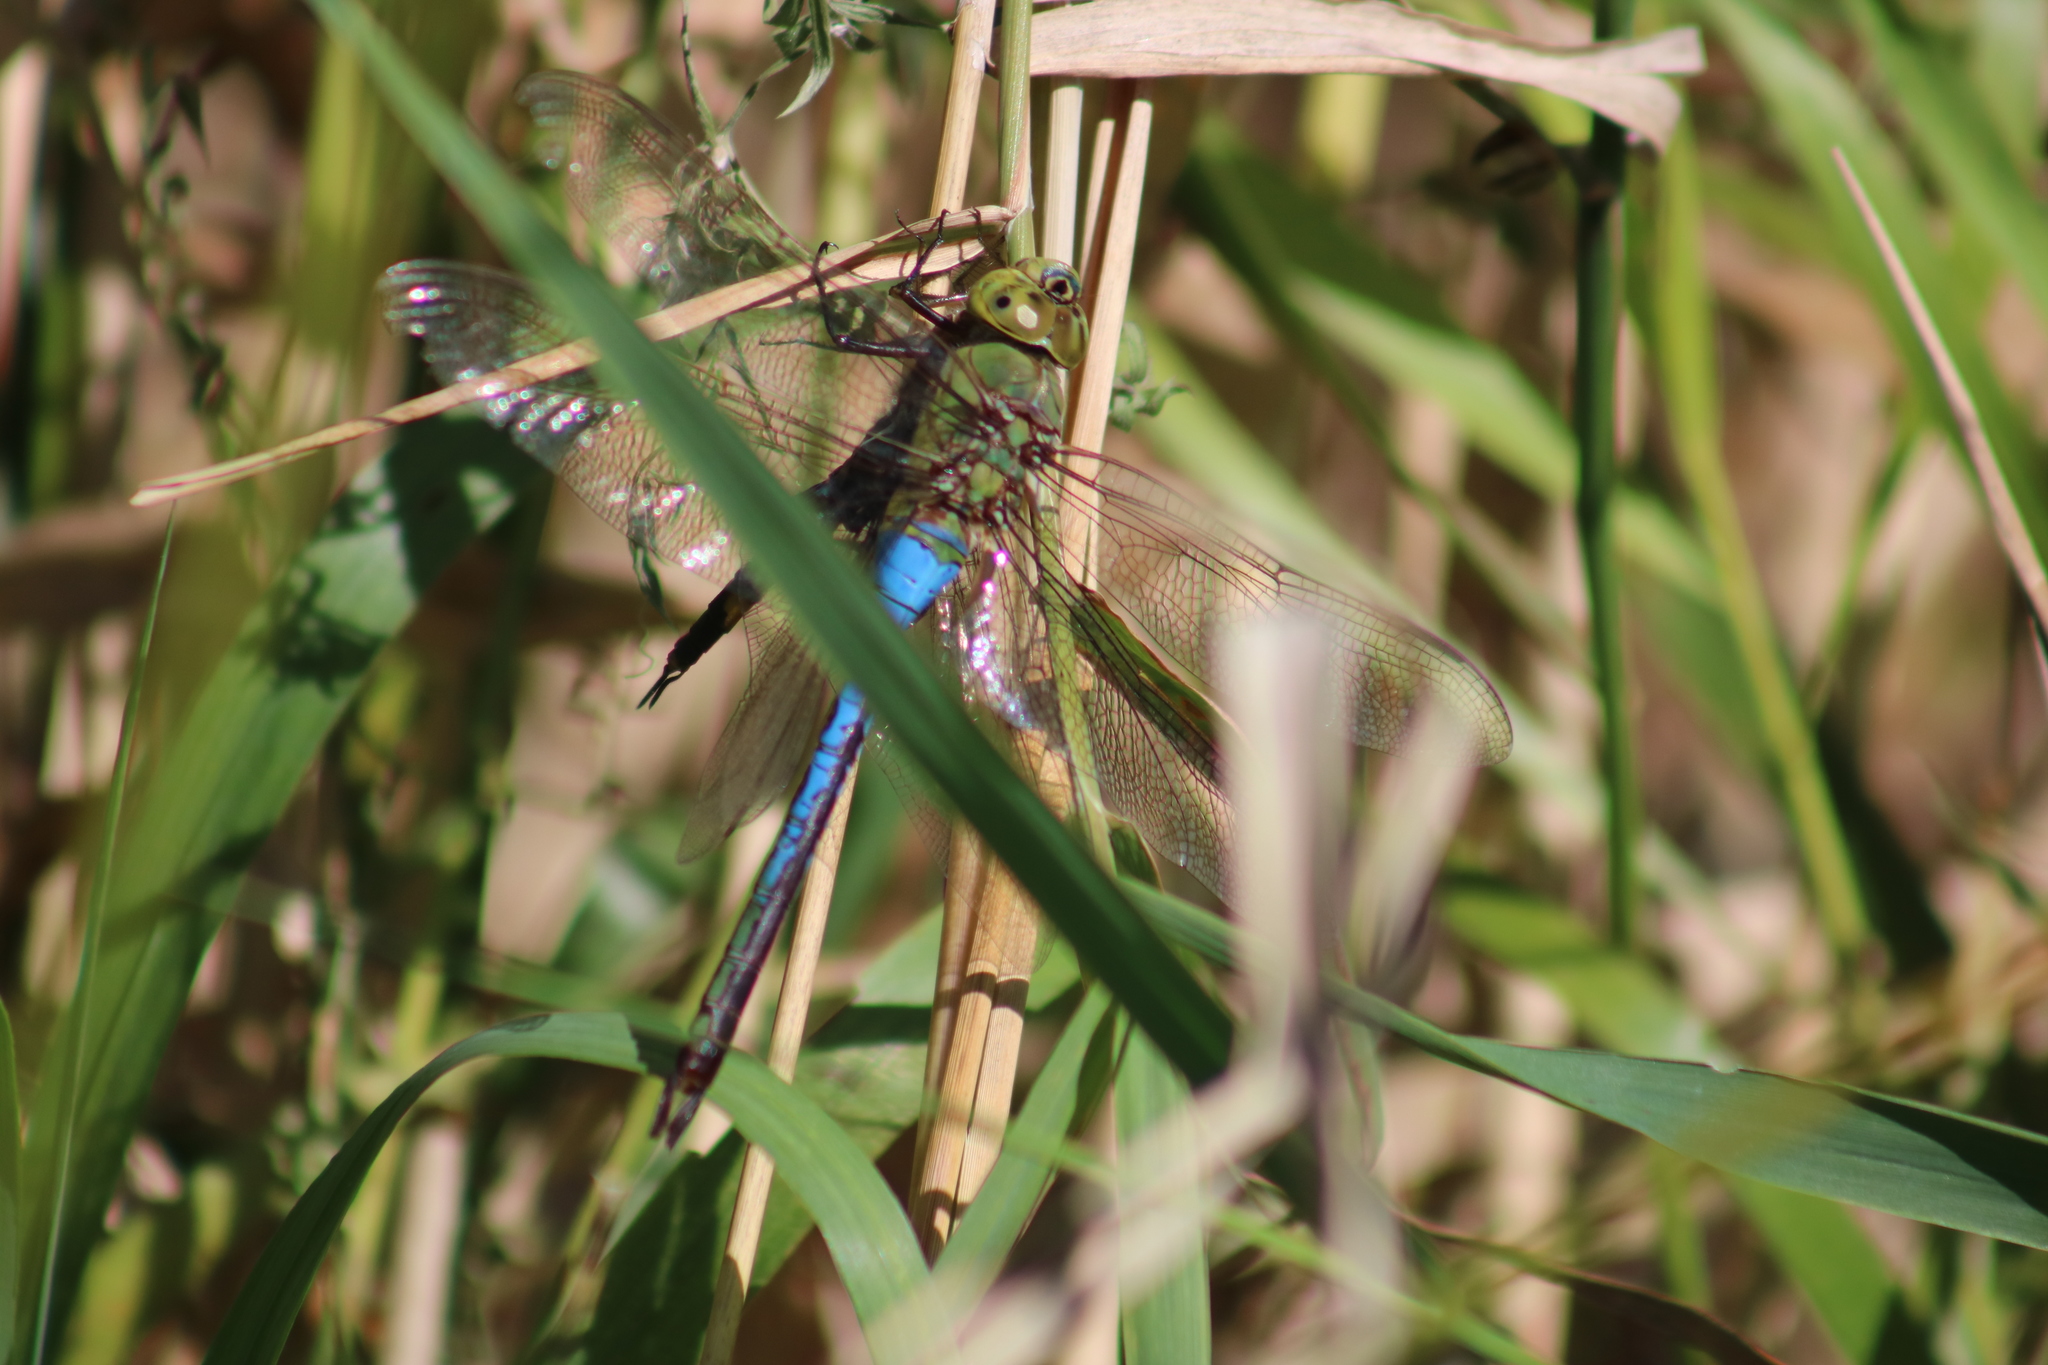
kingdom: Animalia
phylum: Arthropoda
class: Insecta
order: Odonata
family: Aeshnidae
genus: Anax
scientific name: Anax junius
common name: Common green darner
